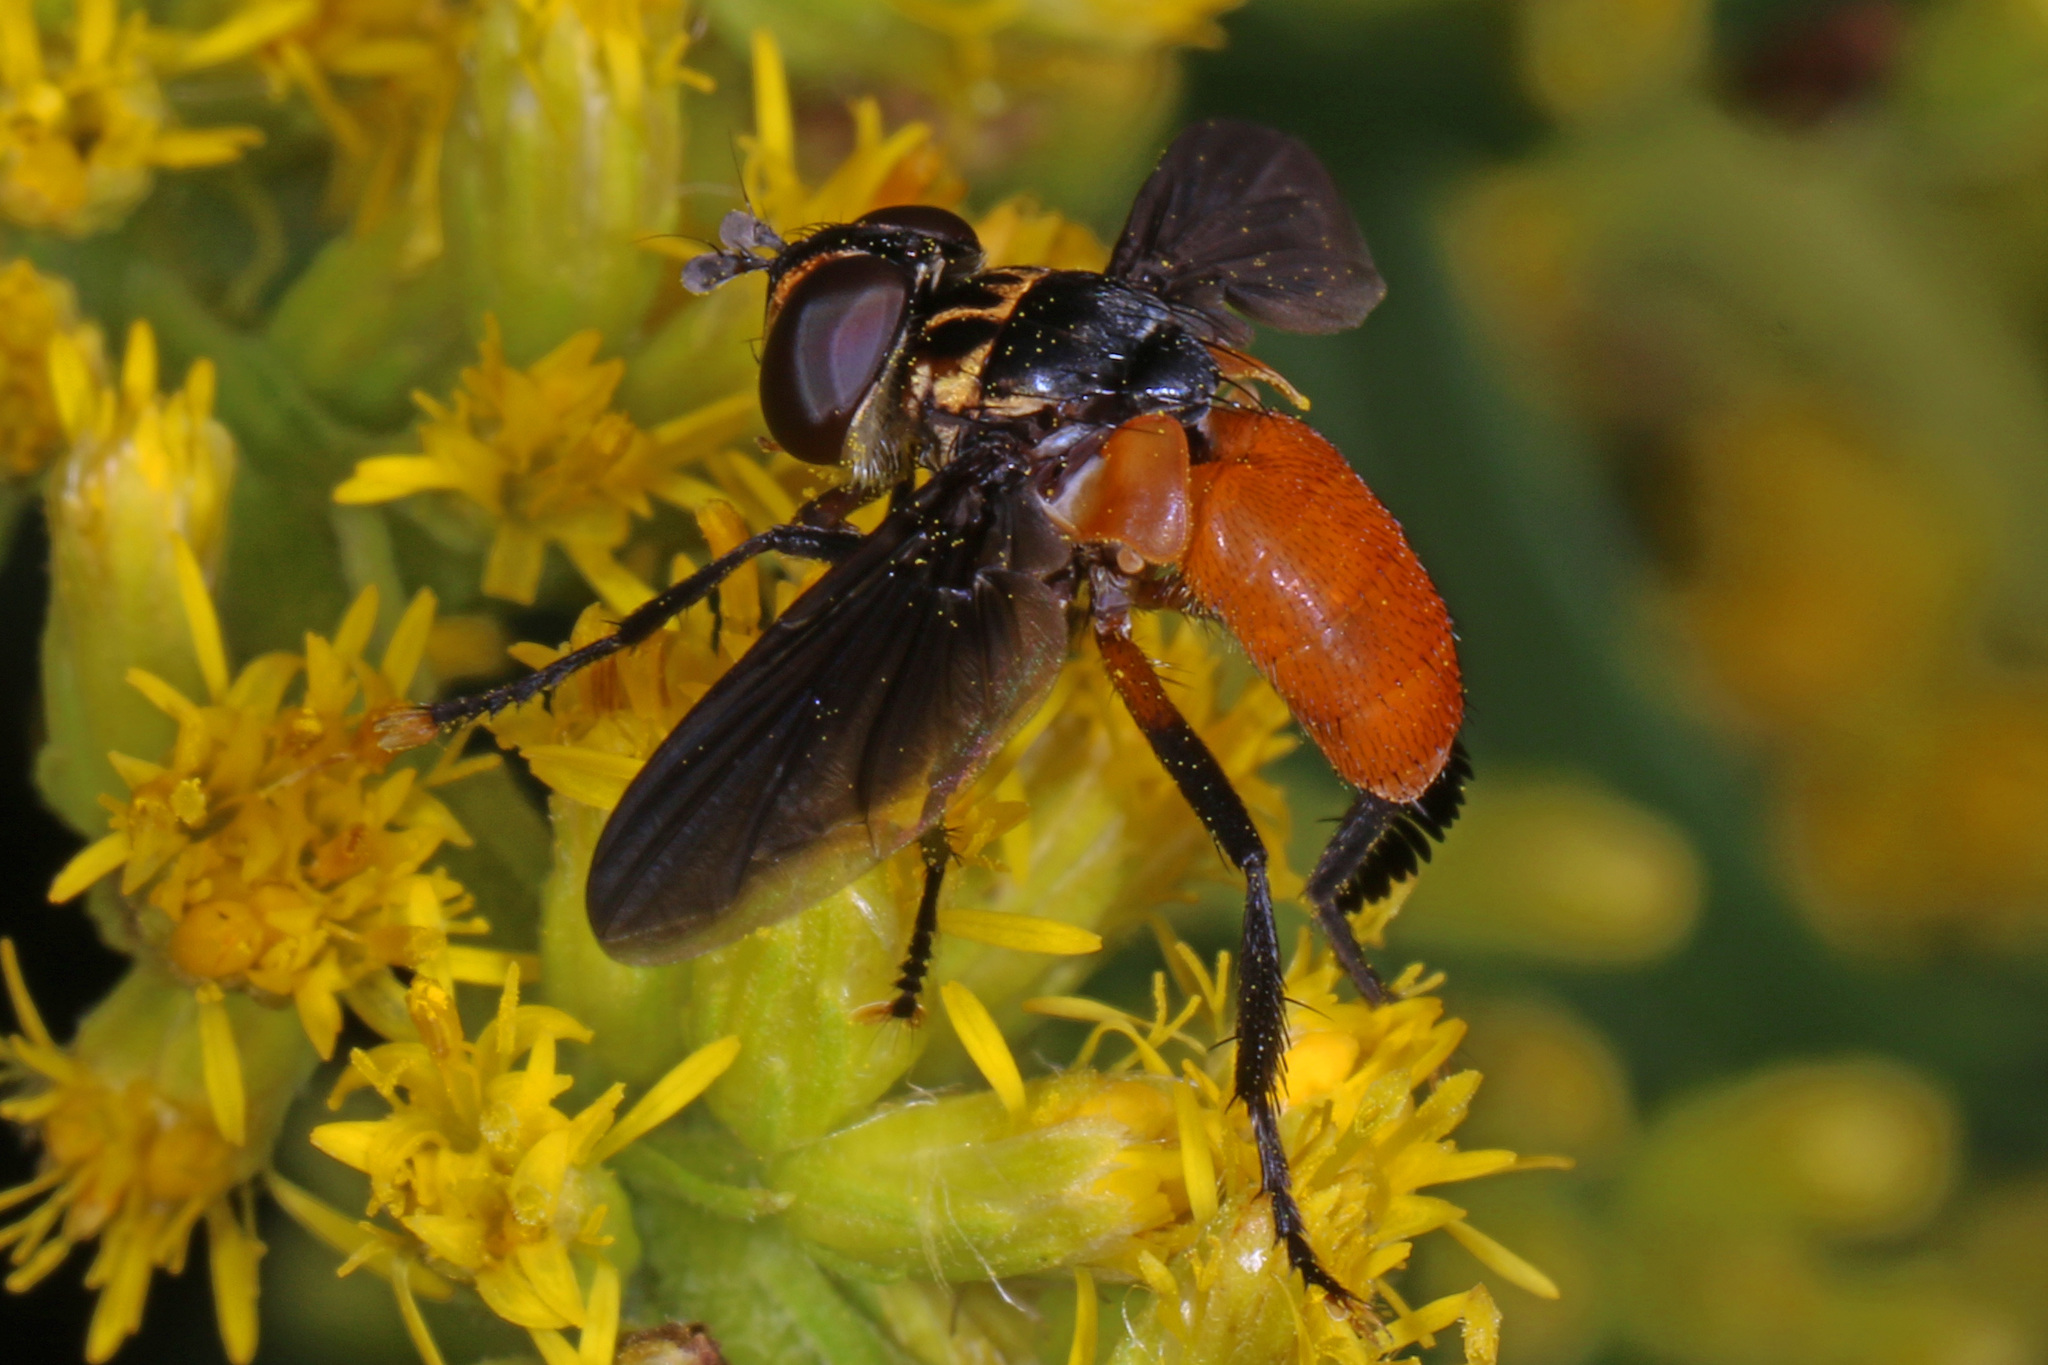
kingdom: Animalia
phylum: Arthropoda
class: Insecta
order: Diptera
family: Tachinidae
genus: Trichopoda
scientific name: Trichopoda pennipes
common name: Tachinid fly
